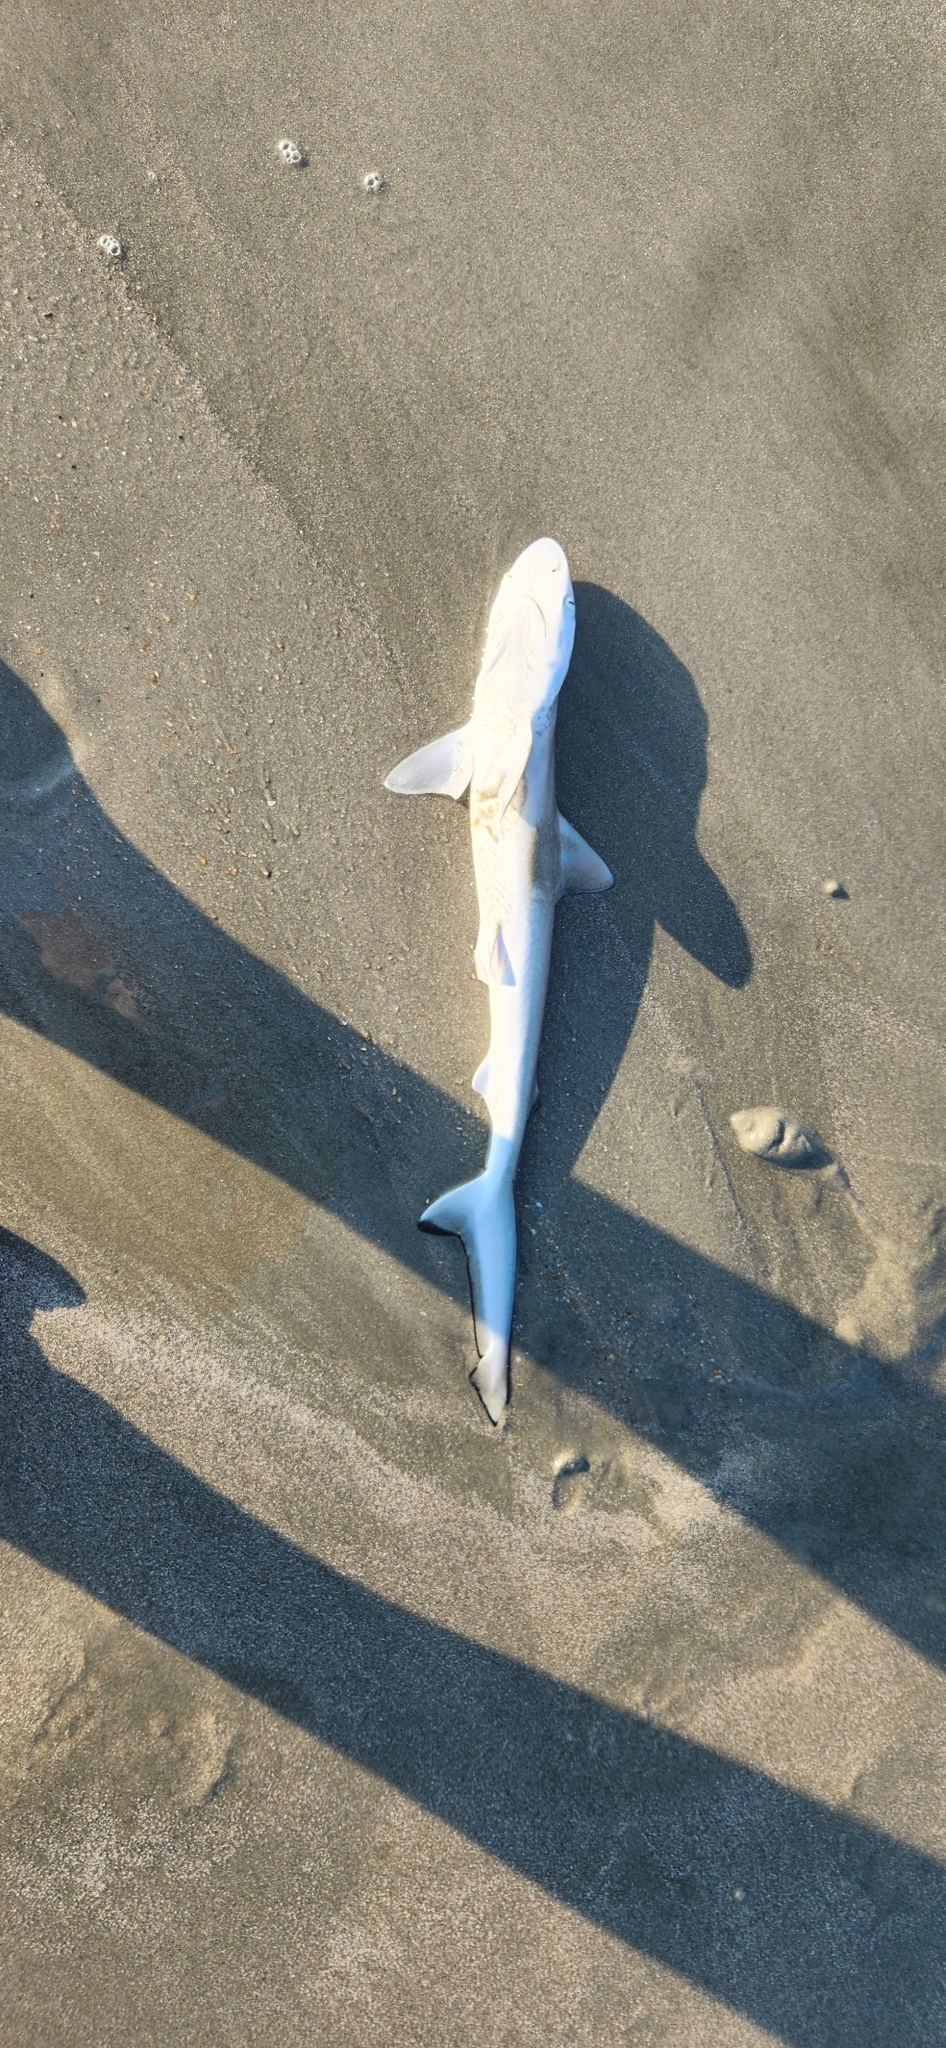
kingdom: Animalia
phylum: Chordata
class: Elasmobranchii
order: Carcharhiniformes
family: Carcharhinidae
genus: Rhizoprionodon
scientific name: Rhizoprionodon terraenovae
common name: Atlantic sharpnose shark
